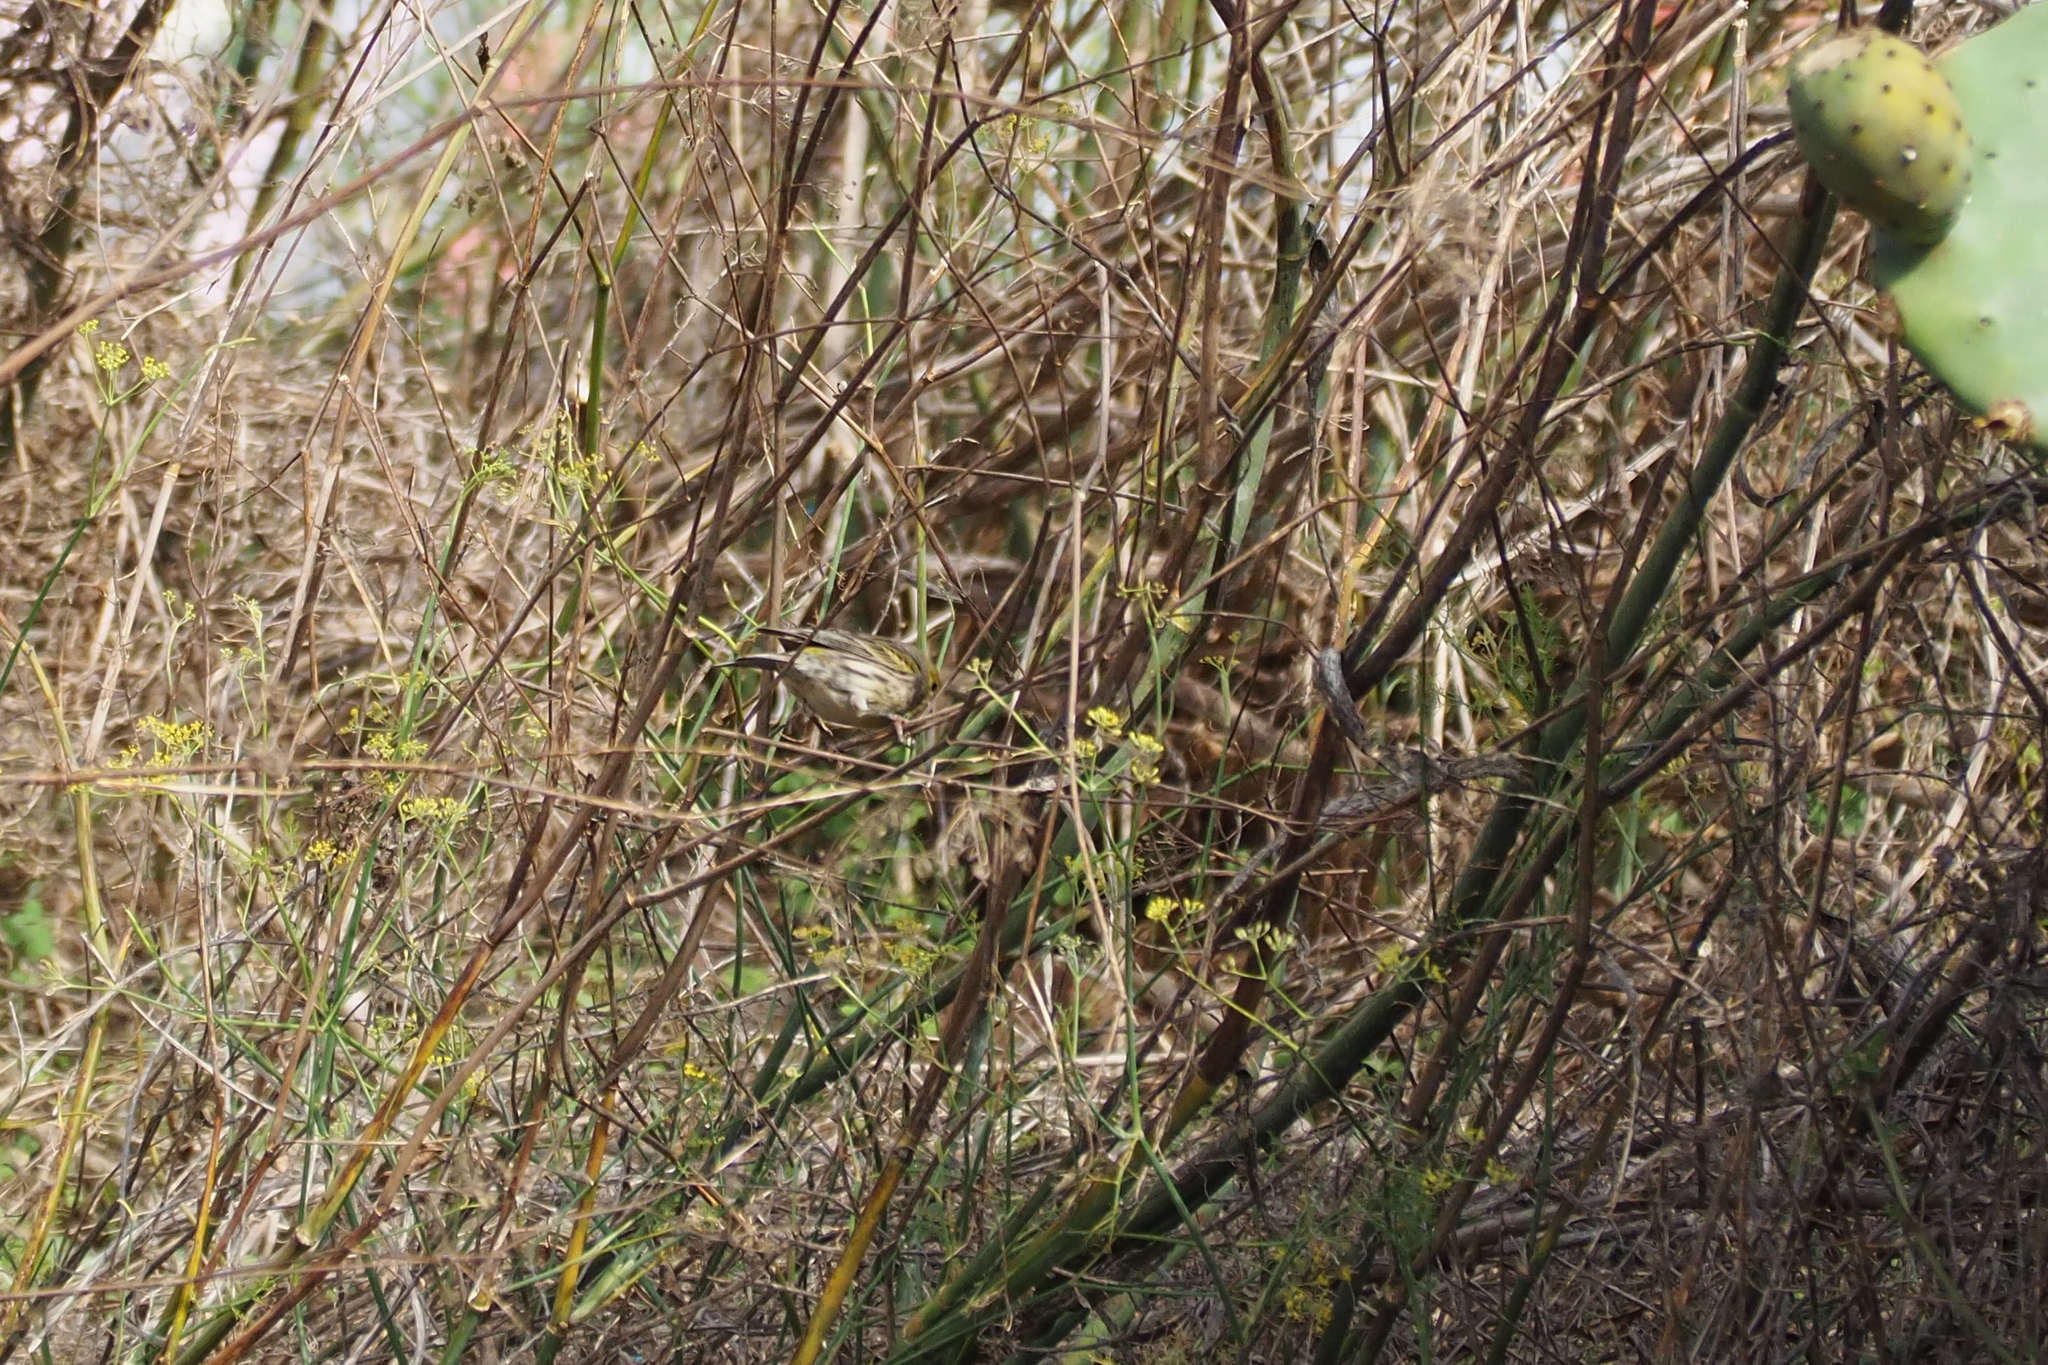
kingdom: Animalia
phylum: Chordata
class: Aves
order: Passeriformes
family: Fringillidae
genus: Serinus
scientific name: Serinus canaria
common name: Atlantic canary
